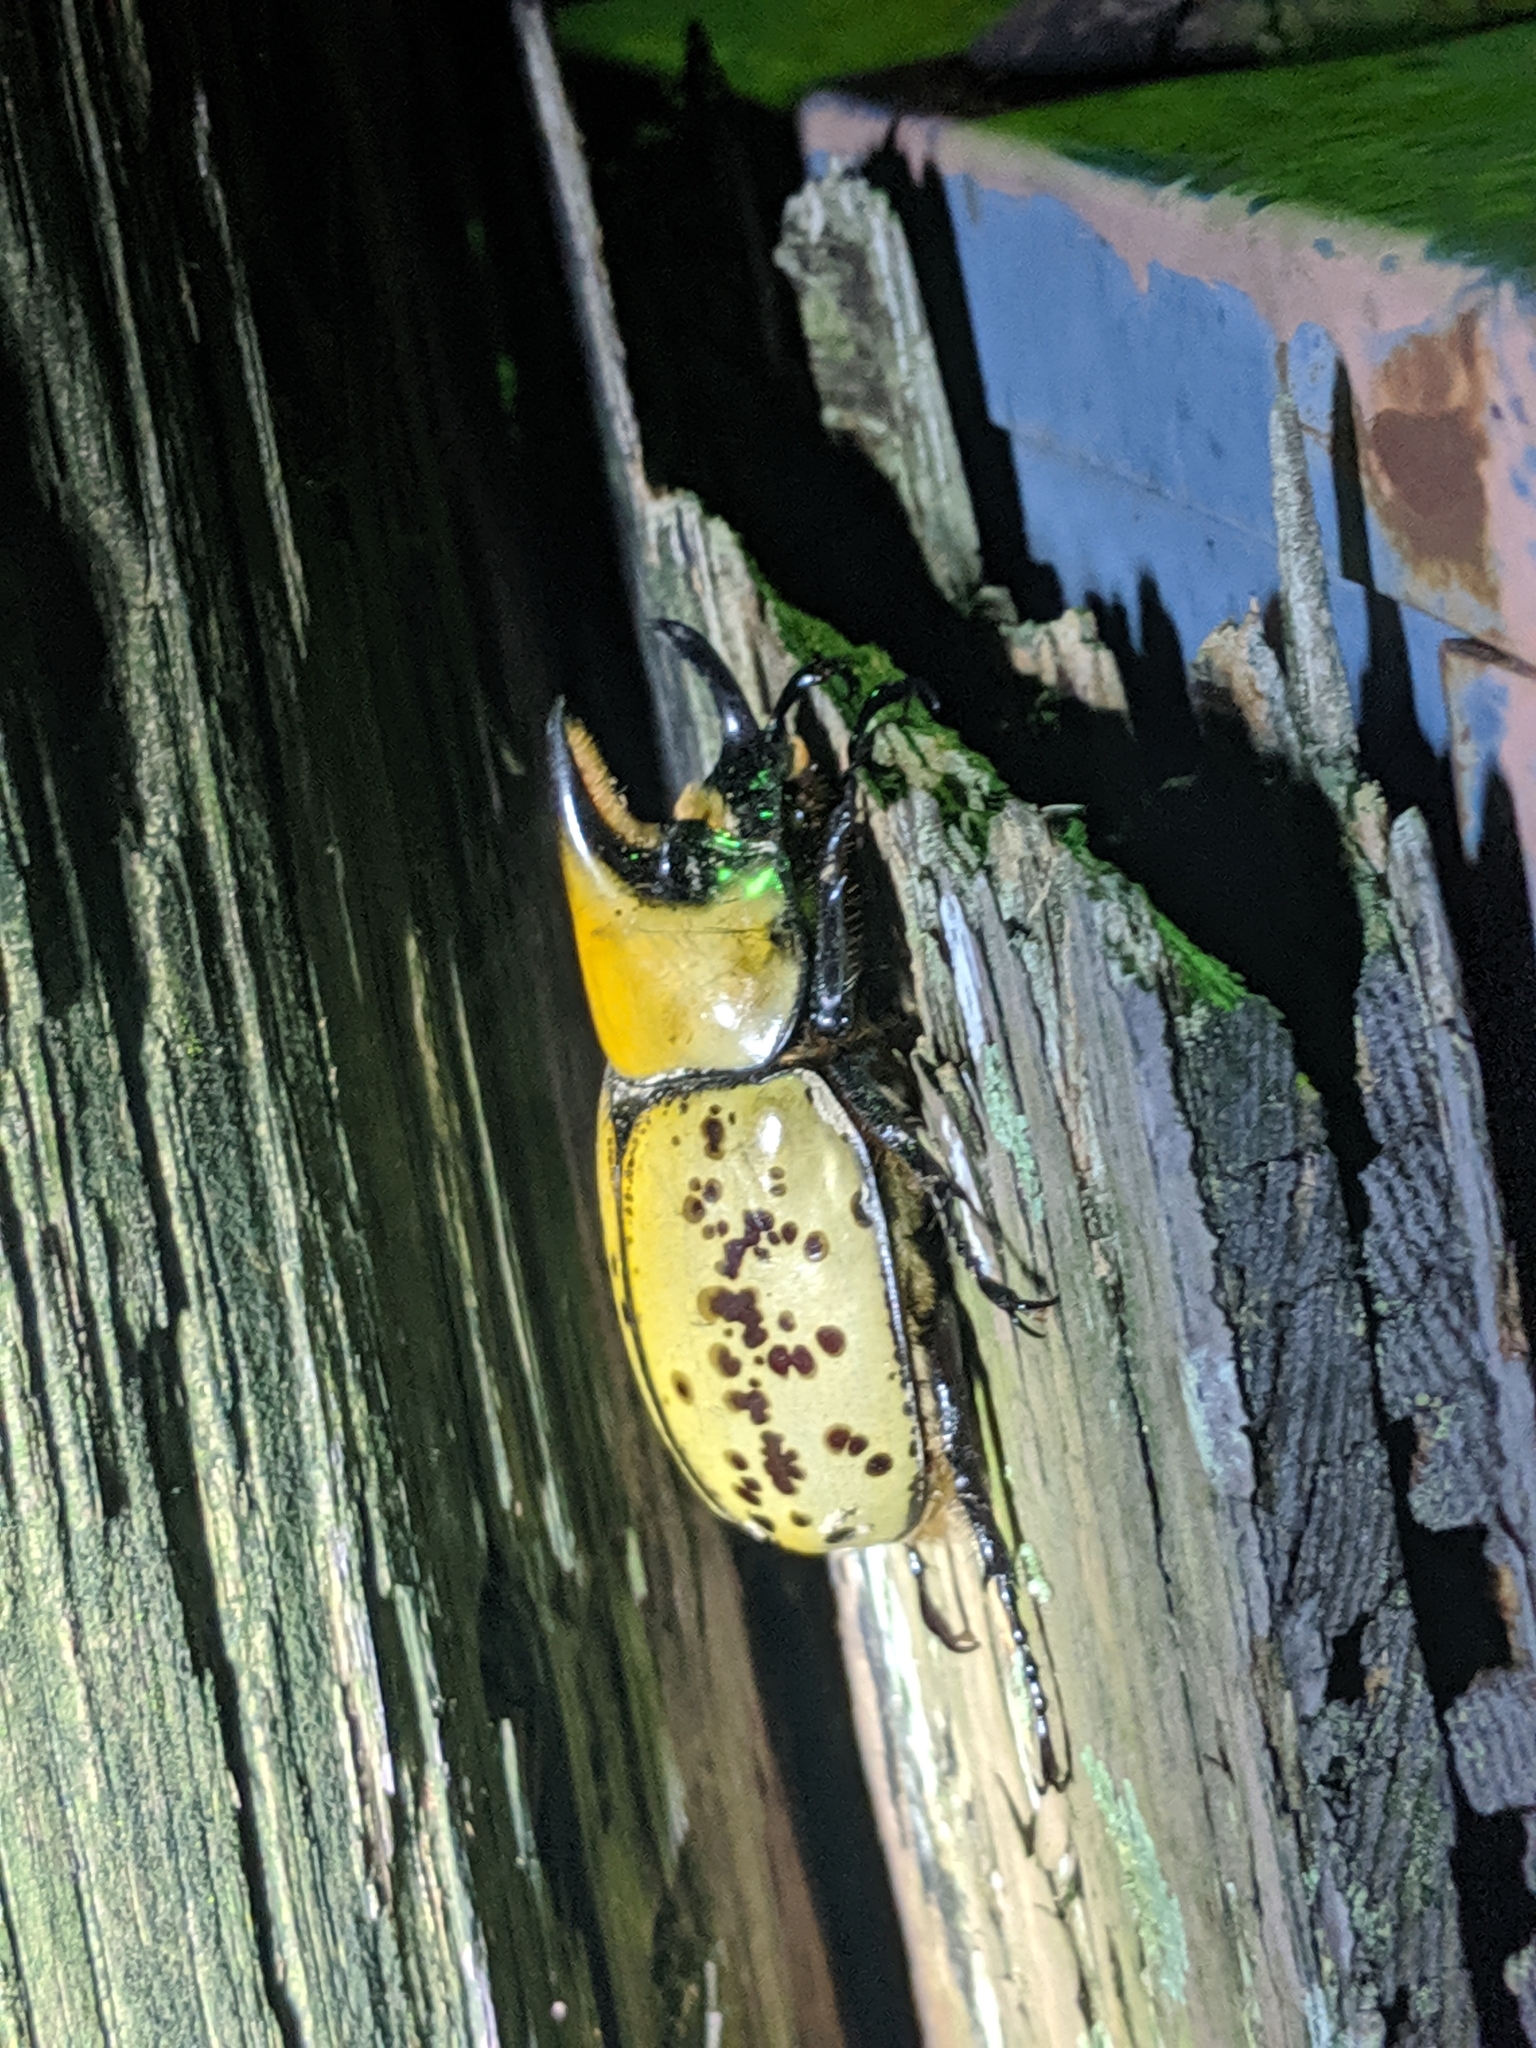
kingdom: Animalia
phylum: Arthropoda
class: Insecta
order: Coleoptera
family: Scarabaeidae
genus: Dynastes
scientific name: Dynastes tityus
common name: Eastern hercules beetle
